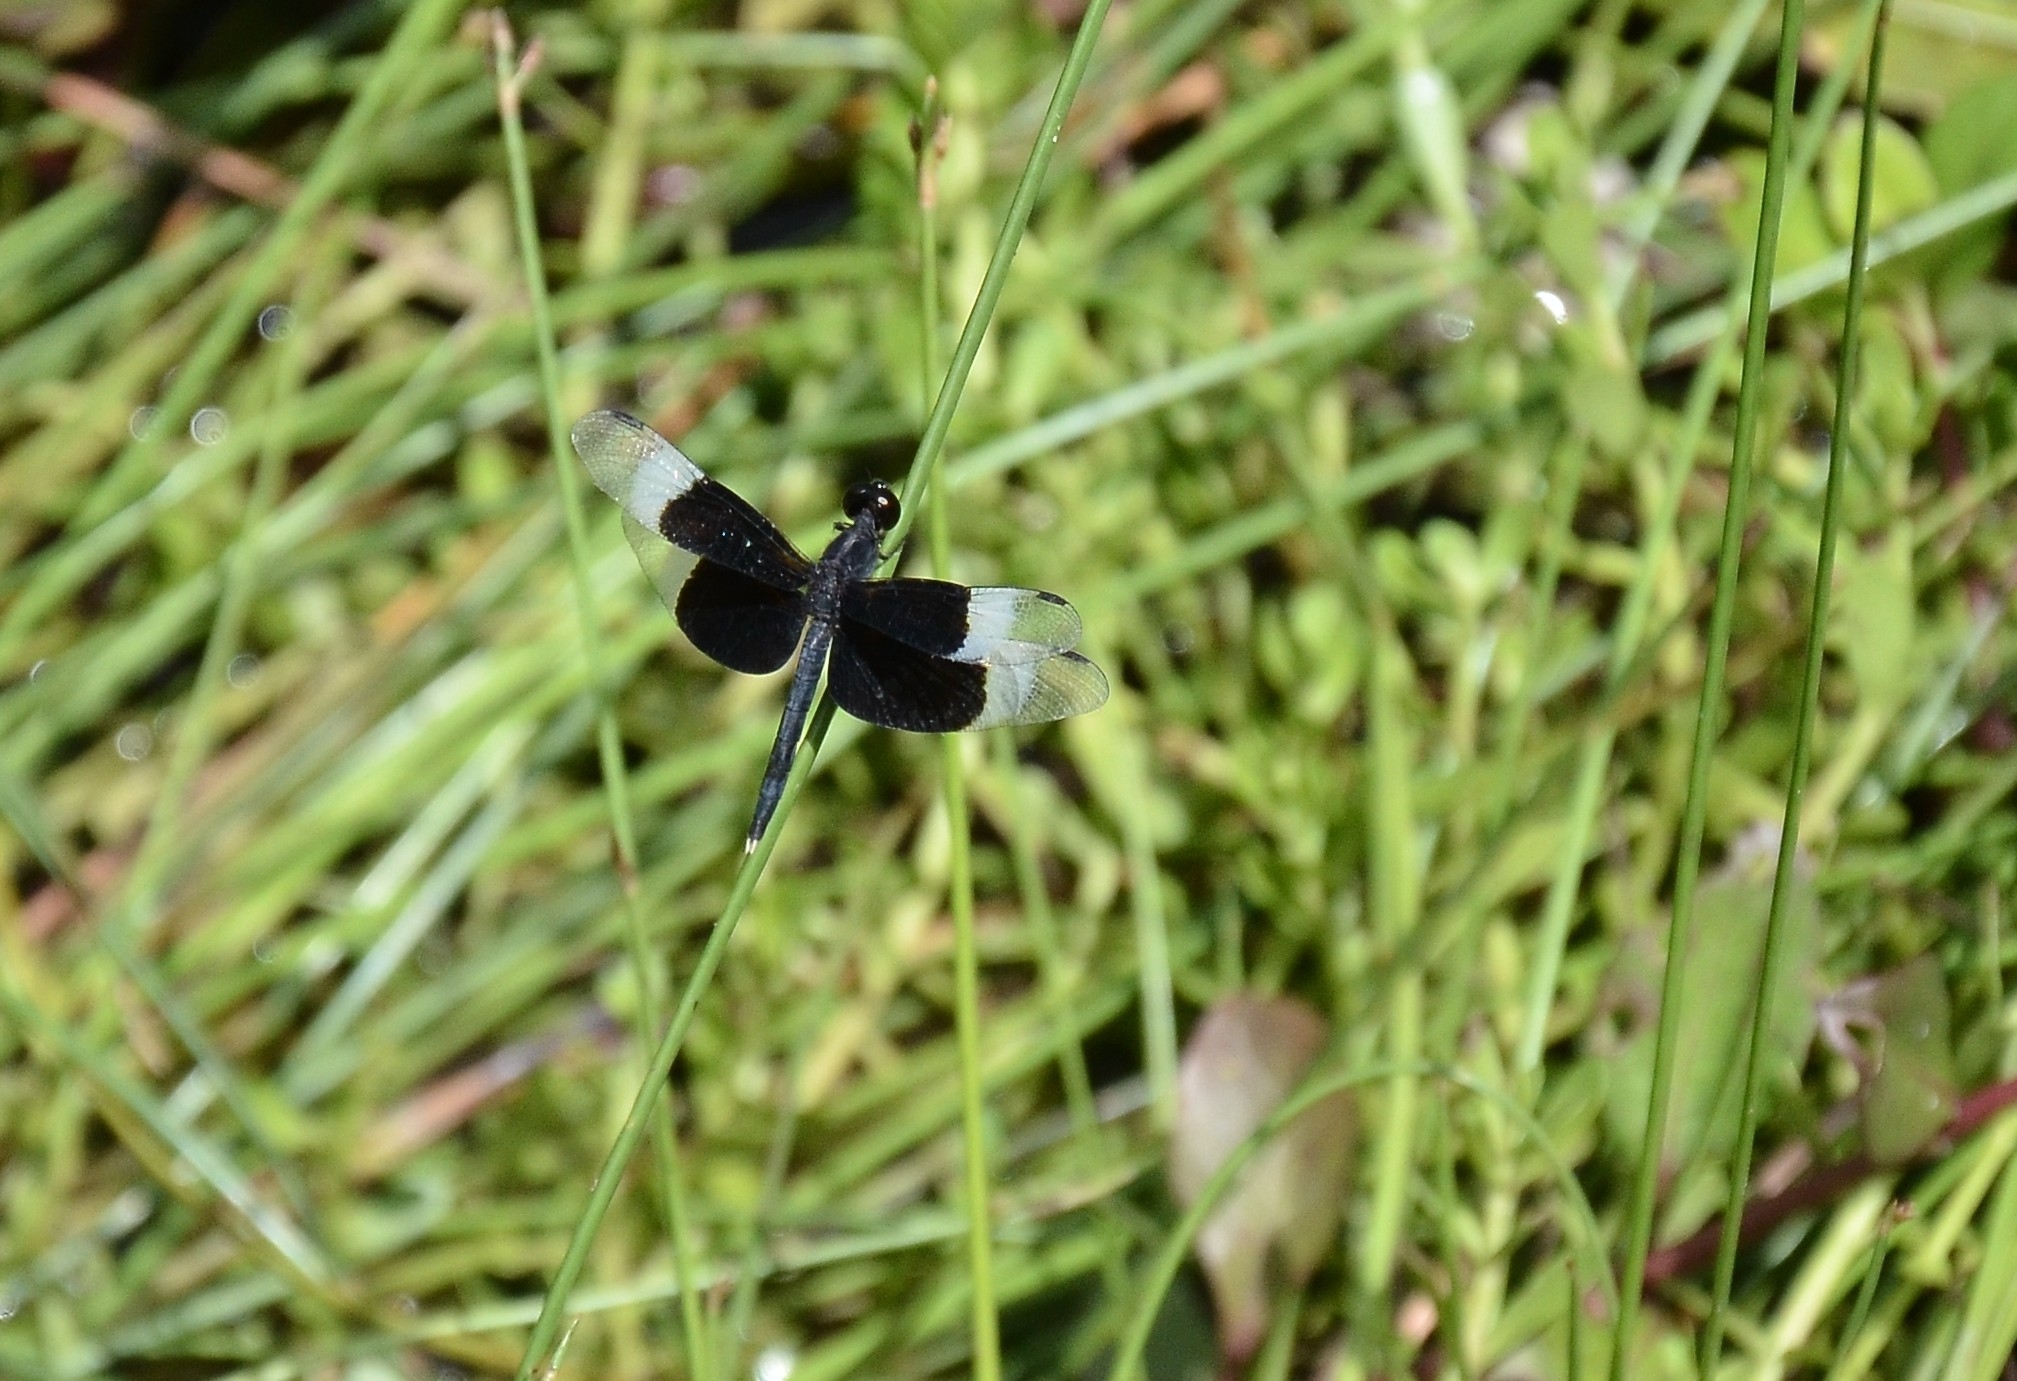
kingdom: Animalia
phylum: Arthropoda
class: Insecta
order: Odonata
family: Libellulidae
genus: Neurothemis
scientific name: Neurothemis tullia
